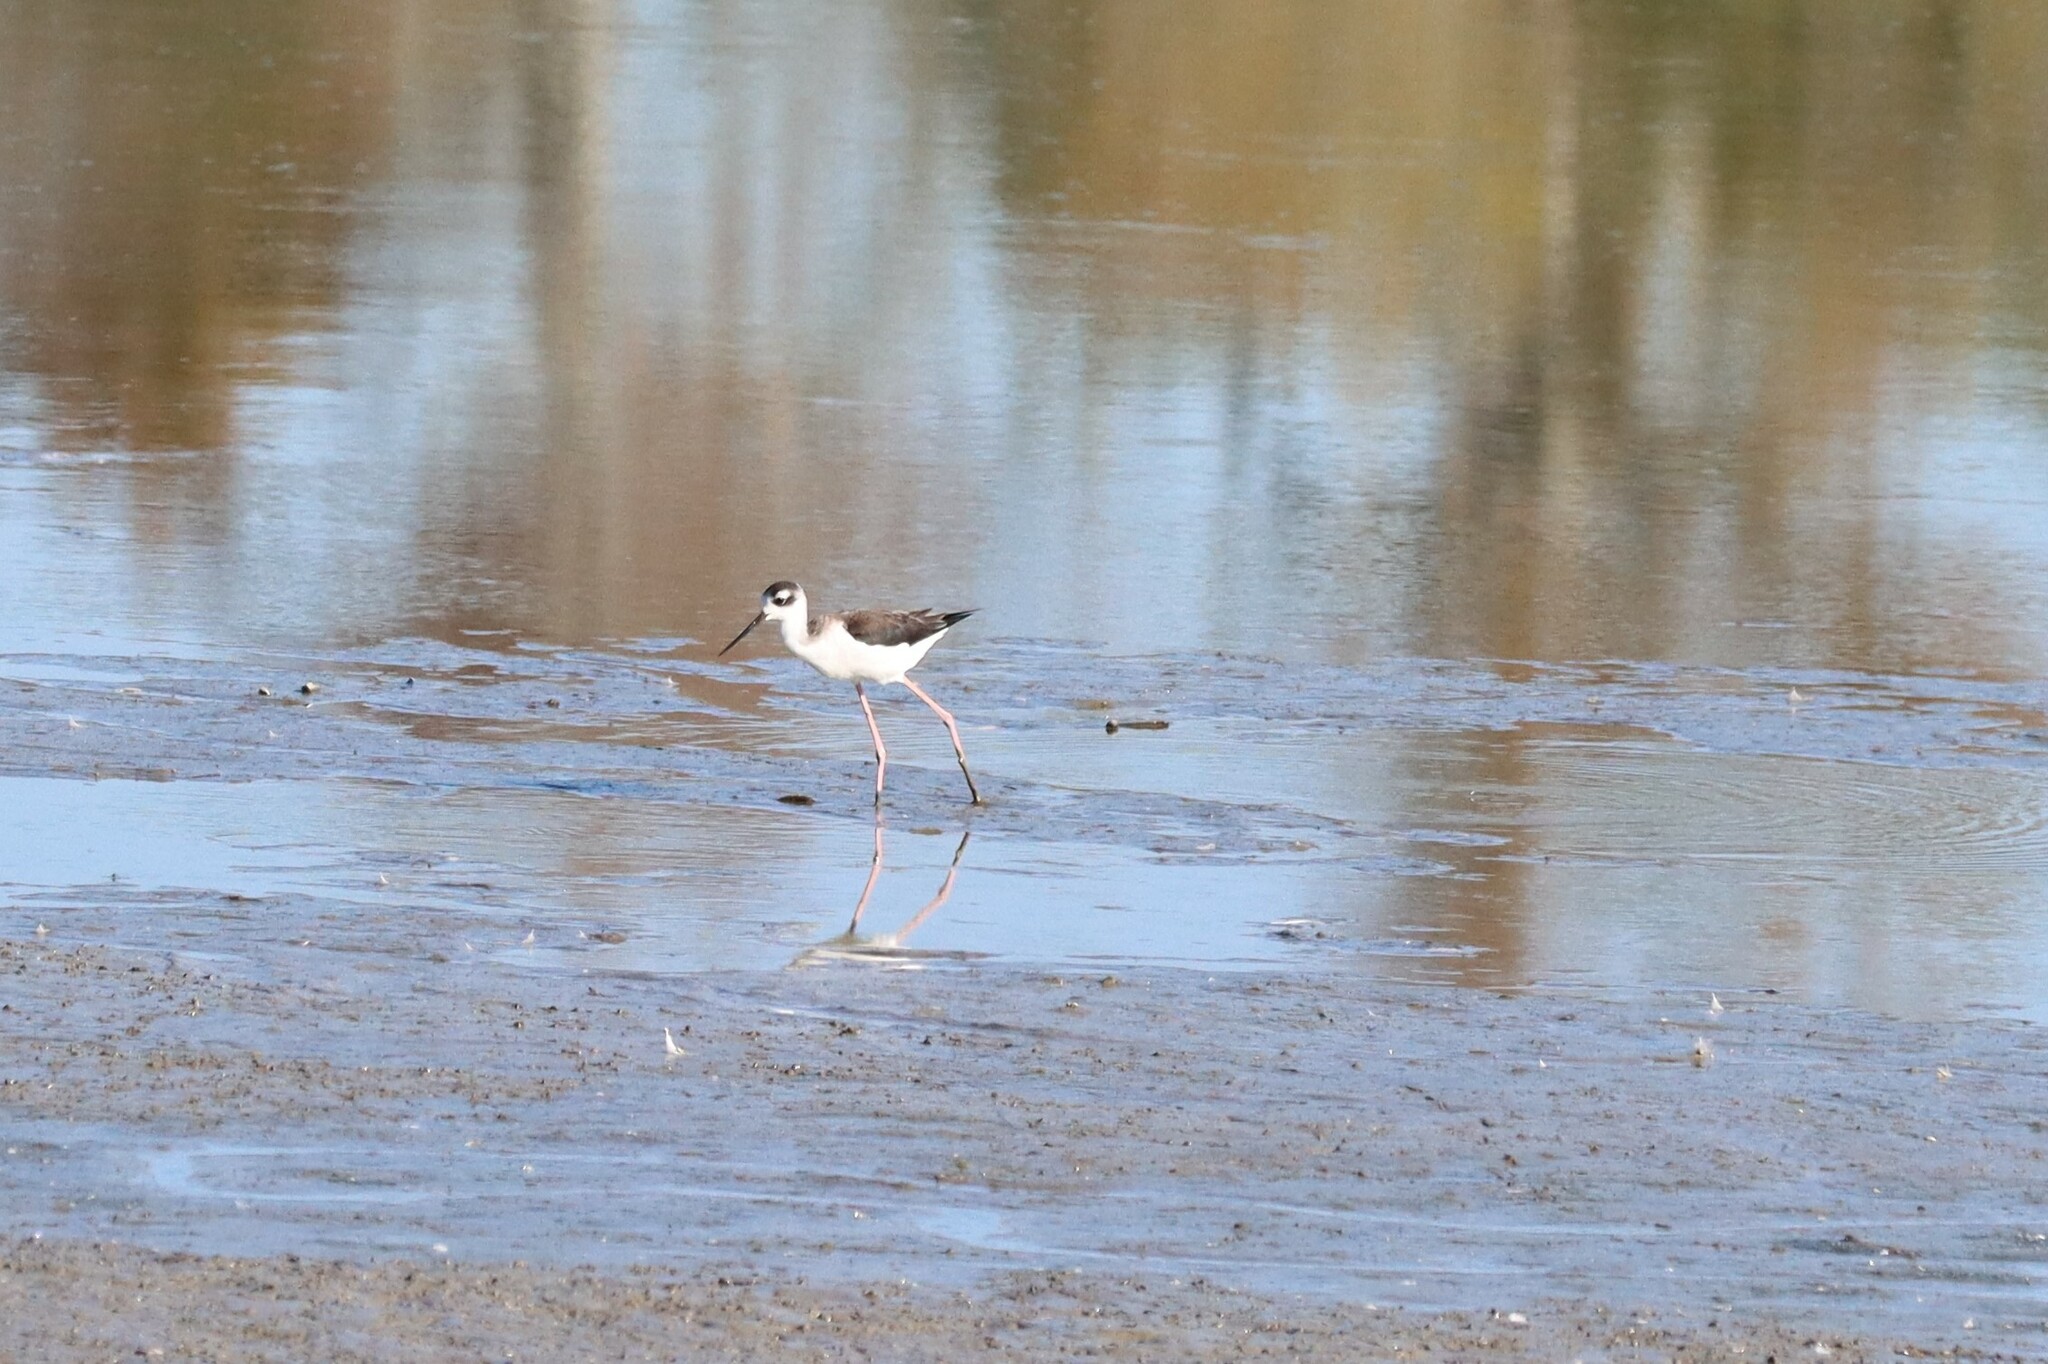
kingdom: Animalia
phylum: Chordata
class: Aves
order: Charadriiformes
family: Recurvirostridae
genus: Himantopus
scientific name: Himantopus mexicanus
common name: Black-necked stilt
